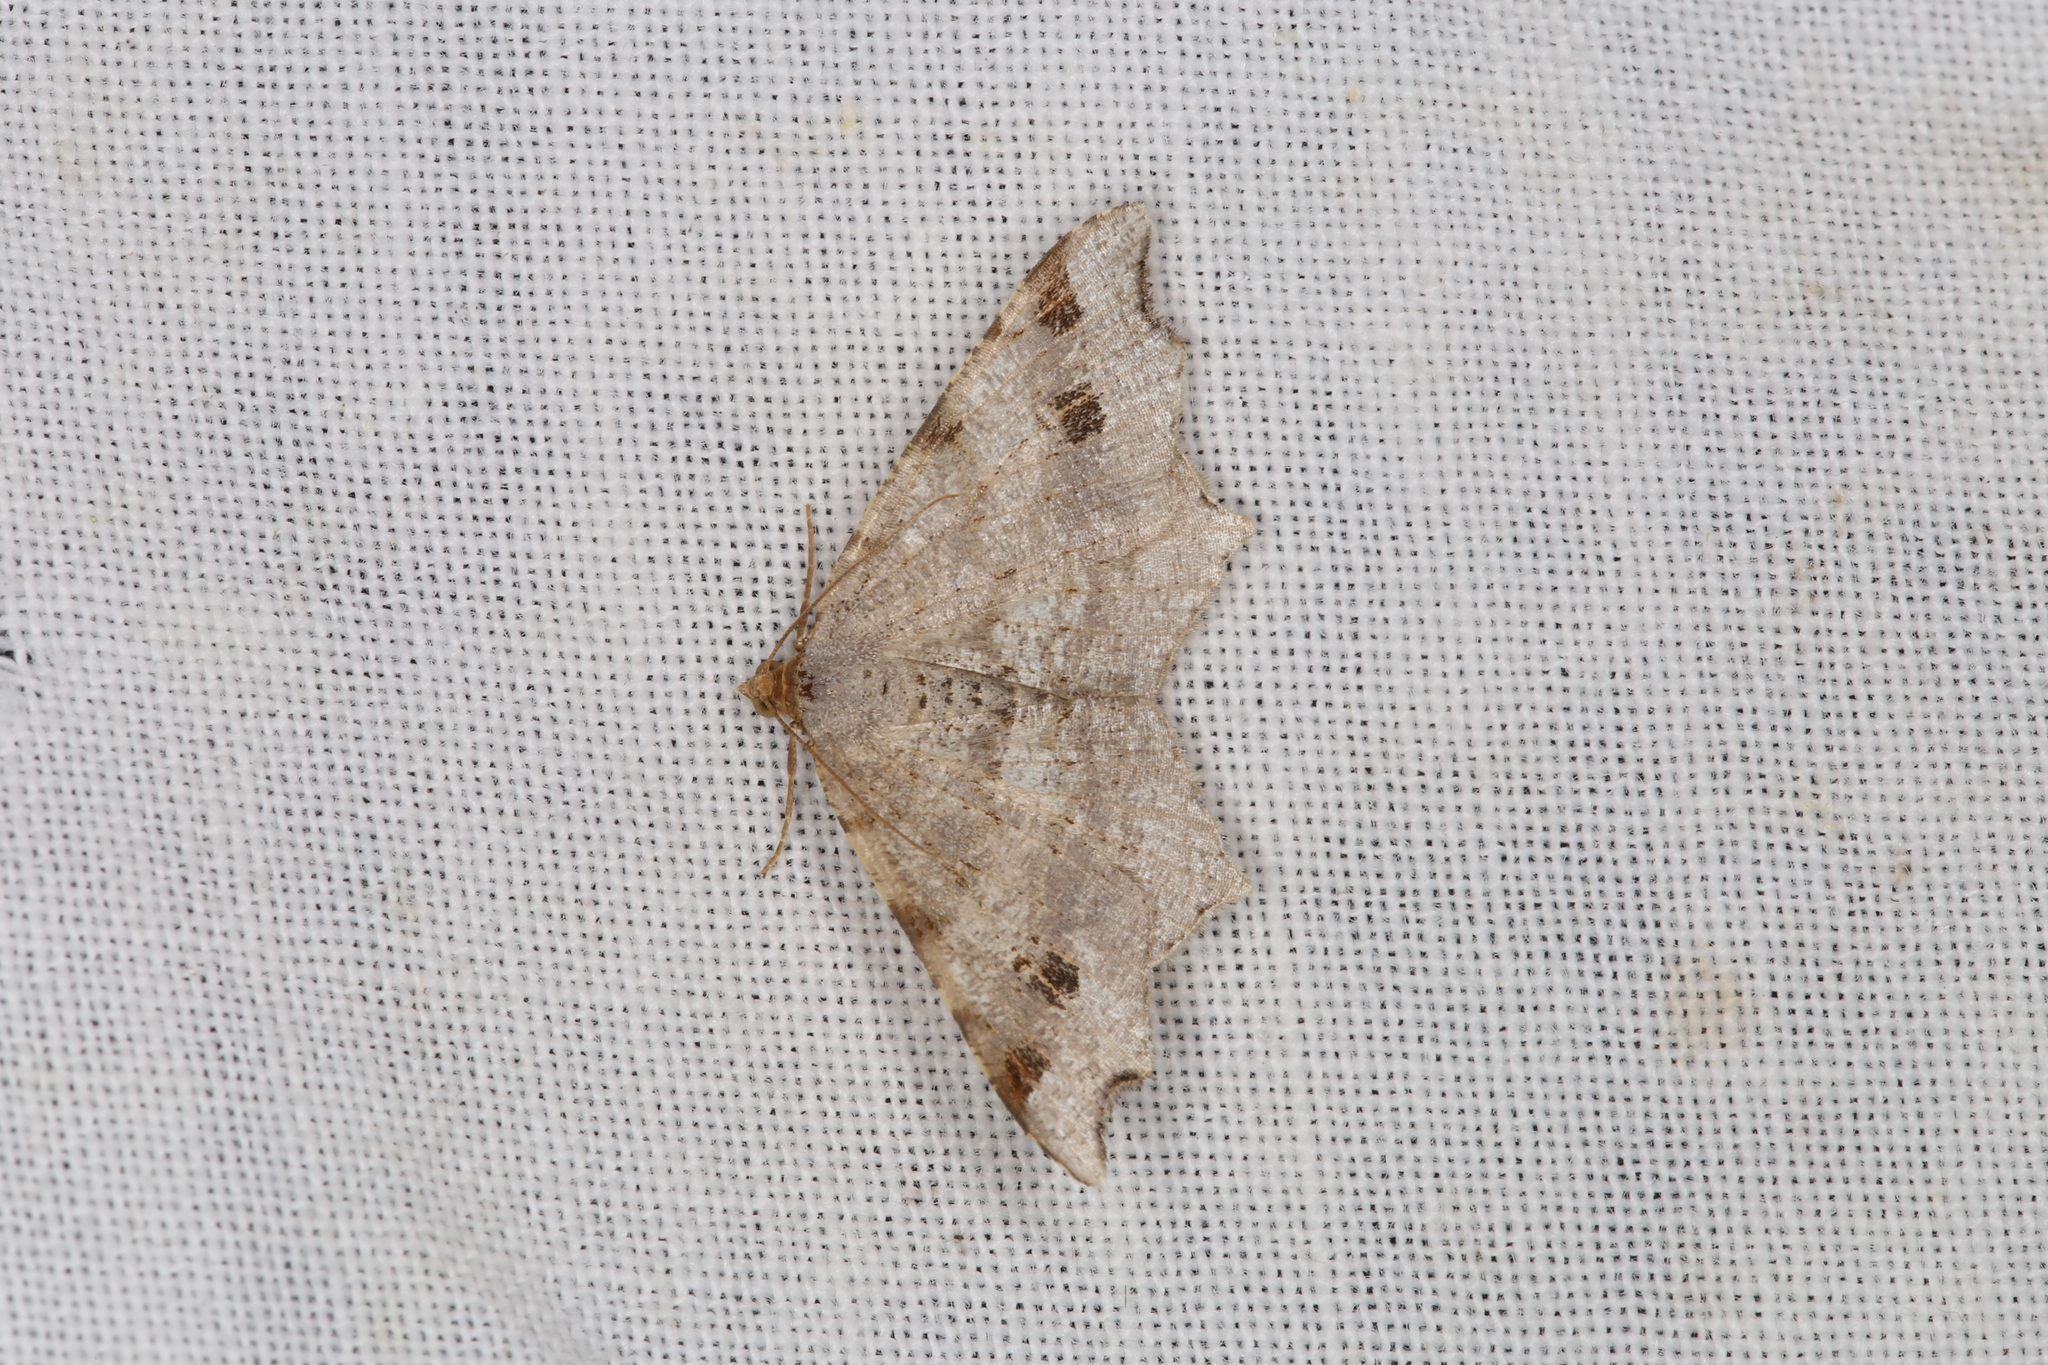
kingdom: Animalia
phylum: Arthropoda
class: Insecta
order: Lepidoptera
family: Geometridae
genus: Macaria
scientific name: Macaria alternata
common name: Sharp-angled peacock
